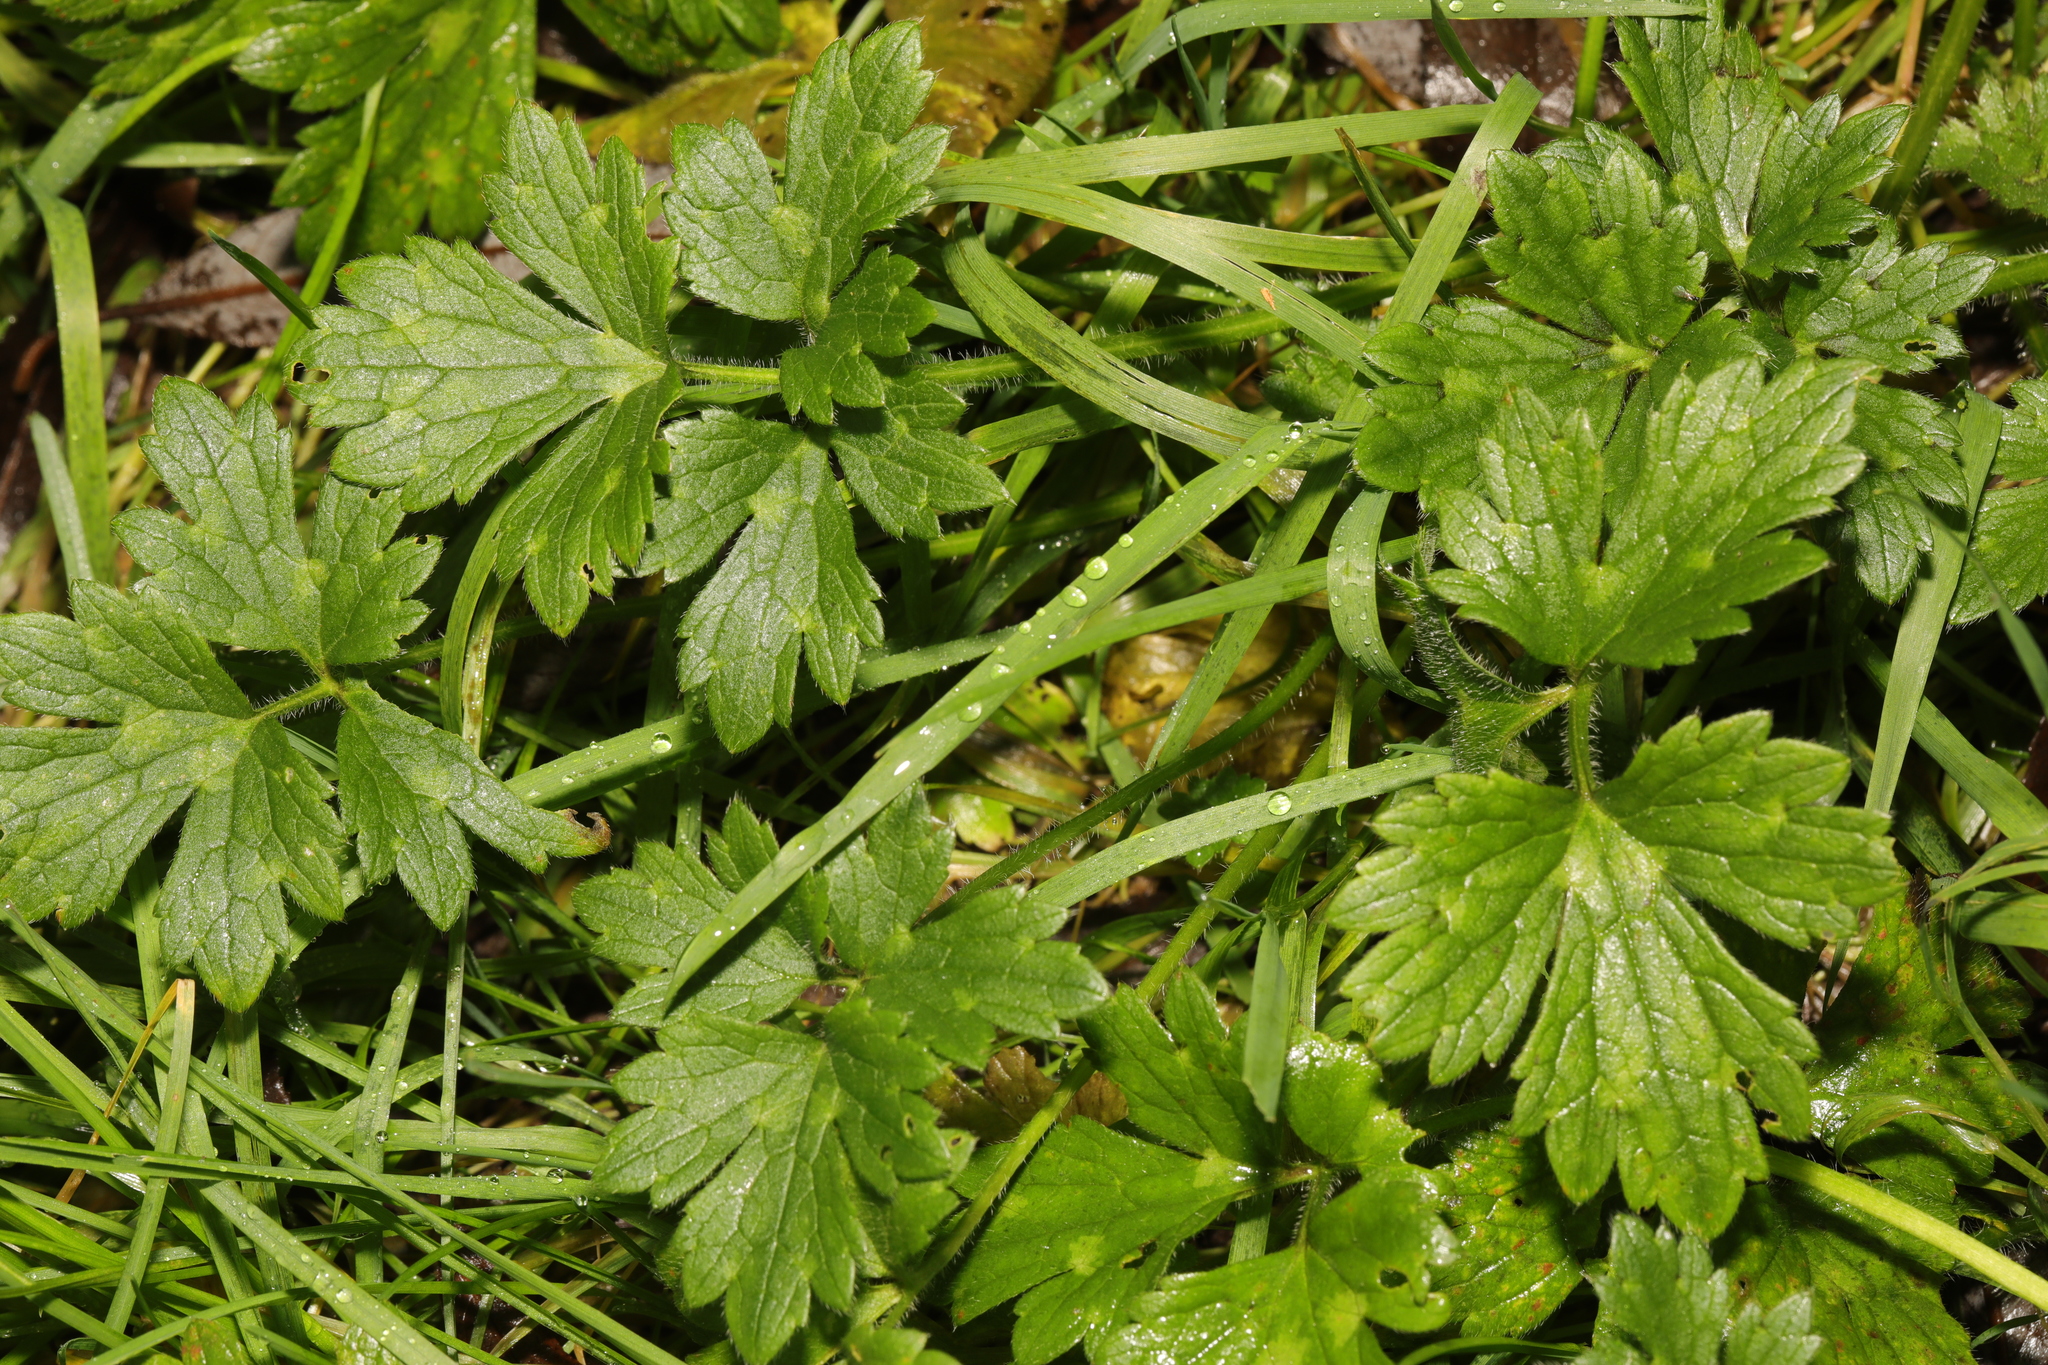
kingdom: Plantae
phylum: Tracheophyta
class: Magnoliopsida
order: Ranunculales
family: Ranunculaceae
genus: Ranunculus
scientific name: Ranunculus repens
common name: Creeping buttercup
